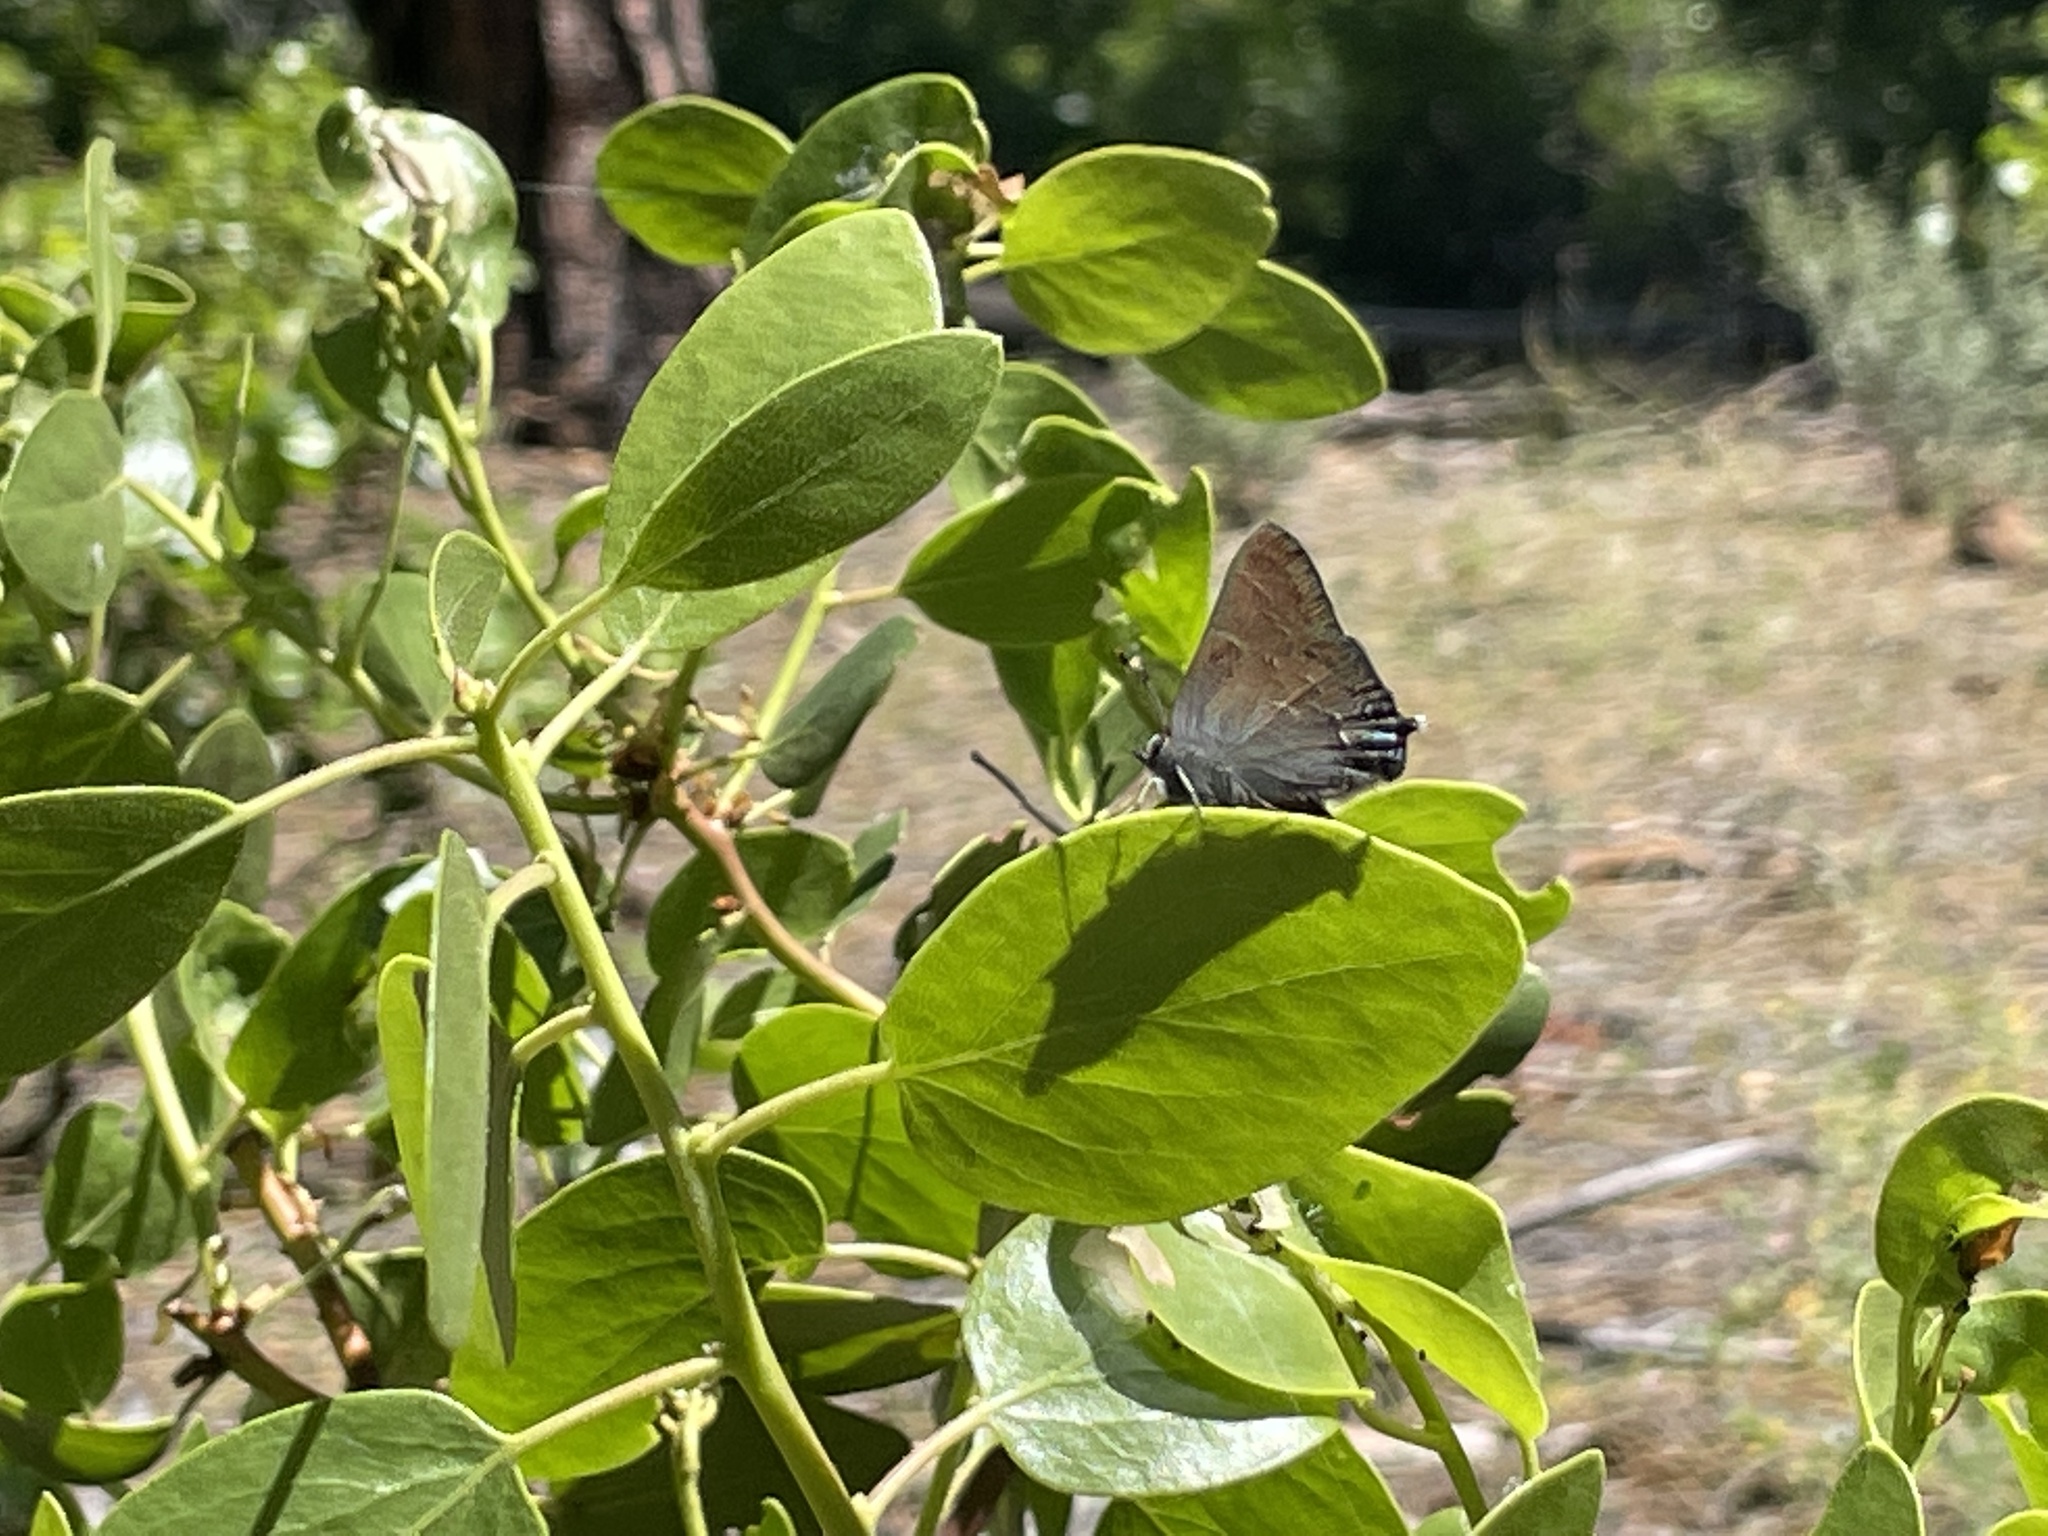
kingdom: Animalia
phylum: Arthropoda
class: Insecta
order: Lepidoptera
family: Lycaenidae
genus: Strymon
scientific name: Strymon saepium
